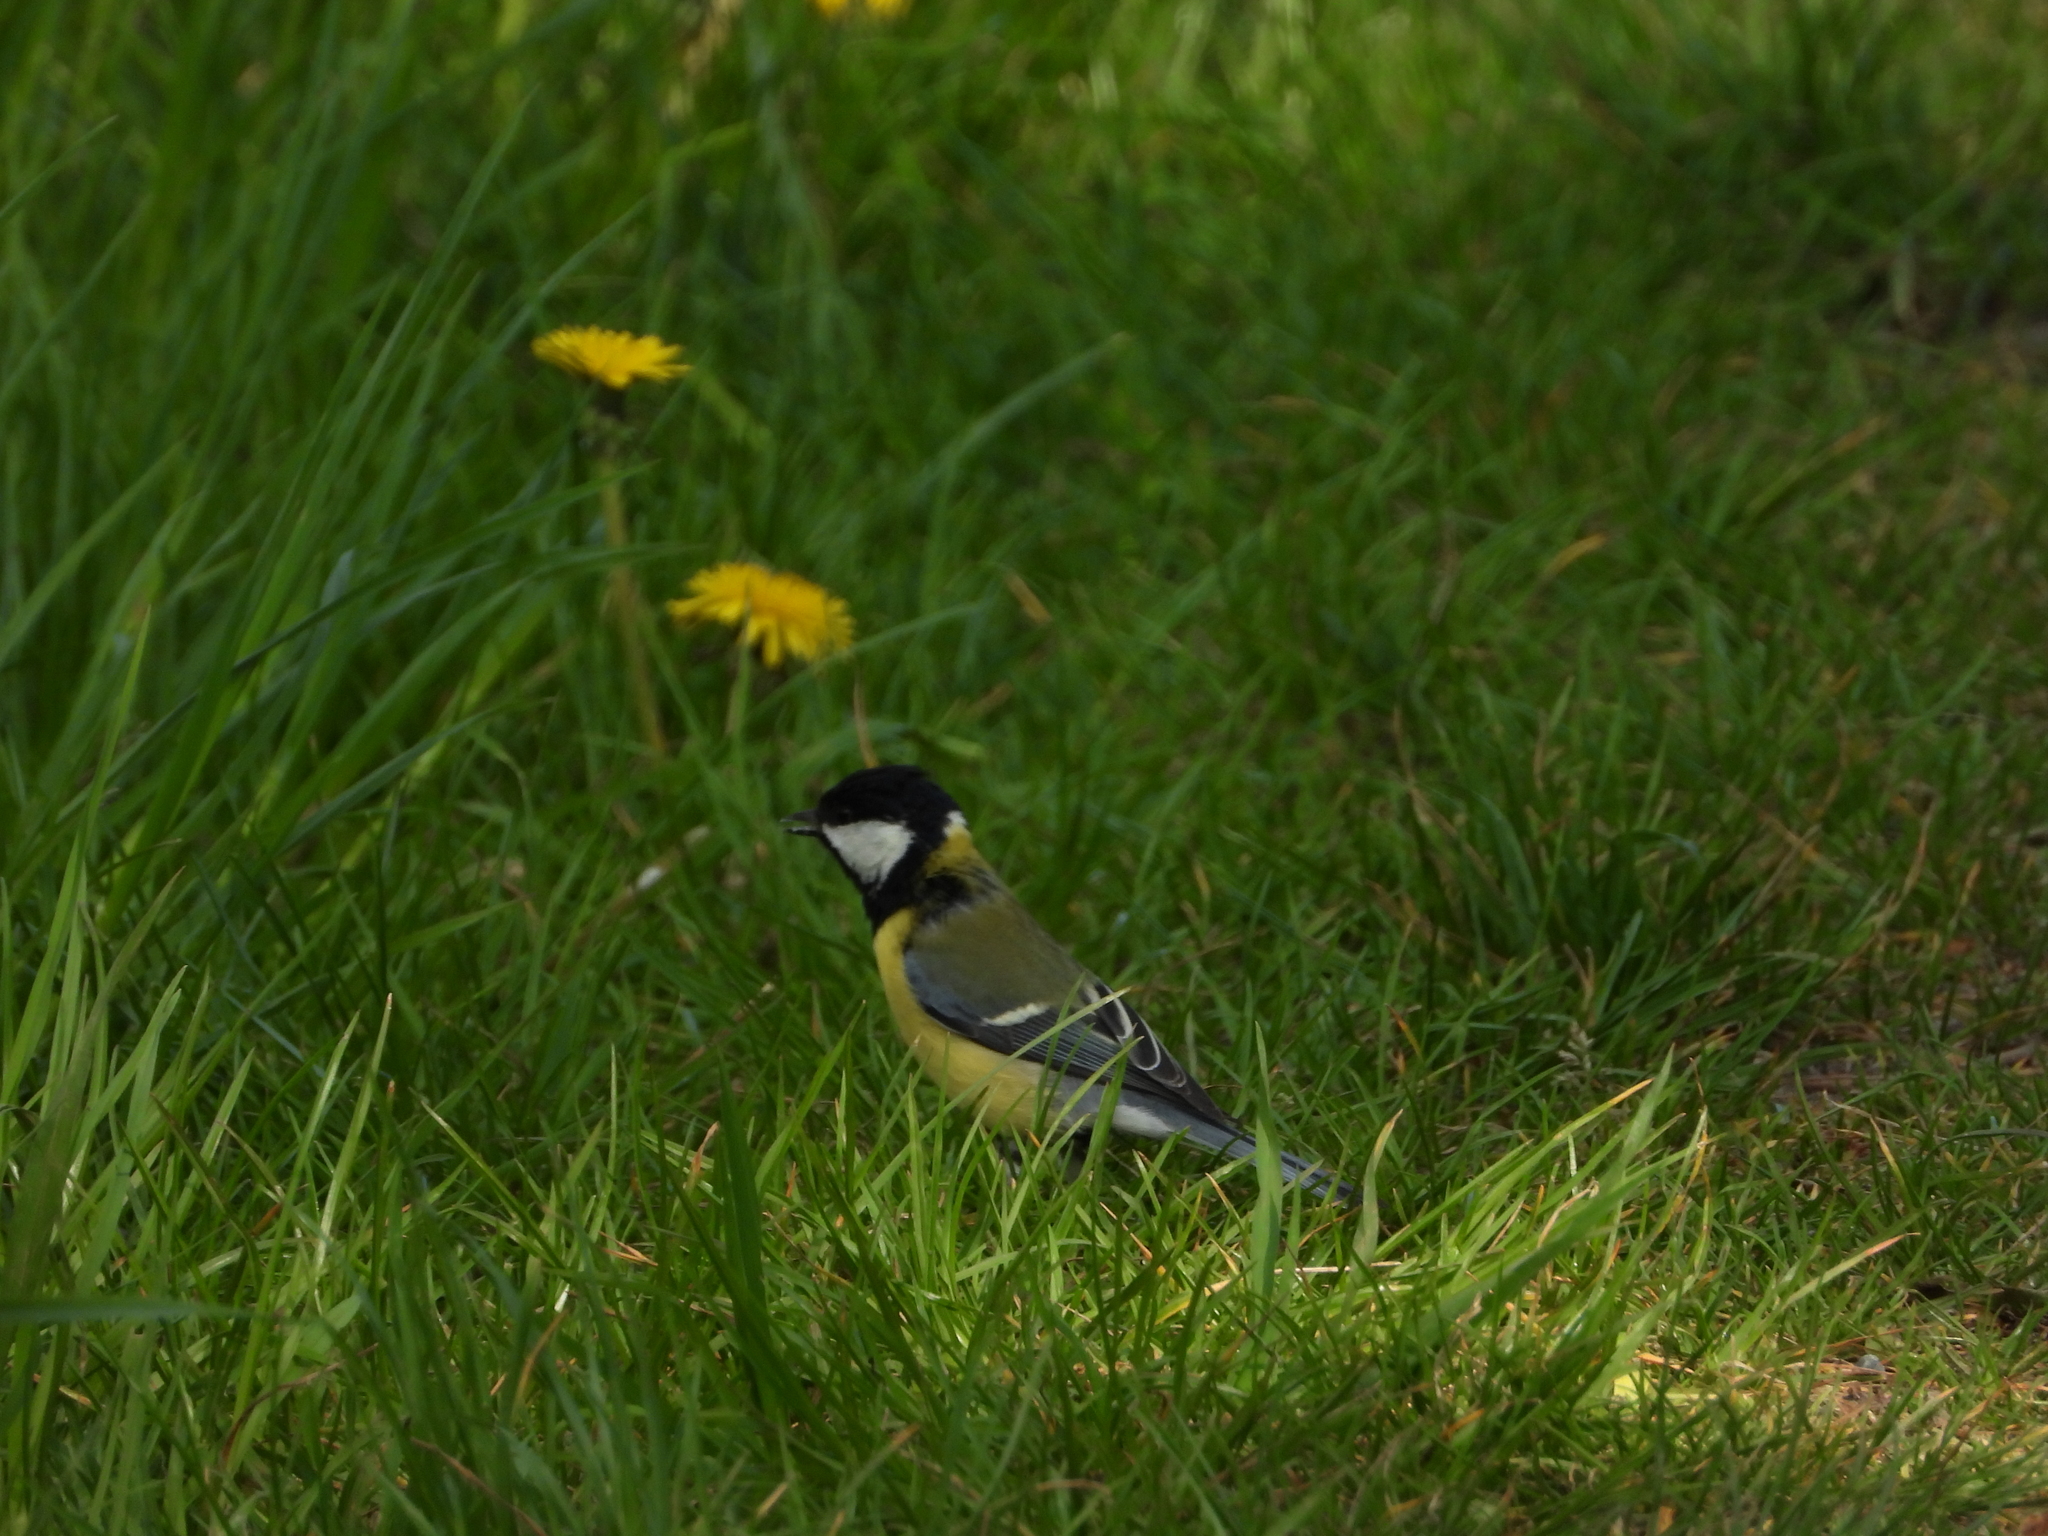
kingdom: Animalia
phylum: Chordata
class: Aves
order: Passeriformes
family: Paridae
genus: Parus
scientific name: Parus major
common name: Great tit
